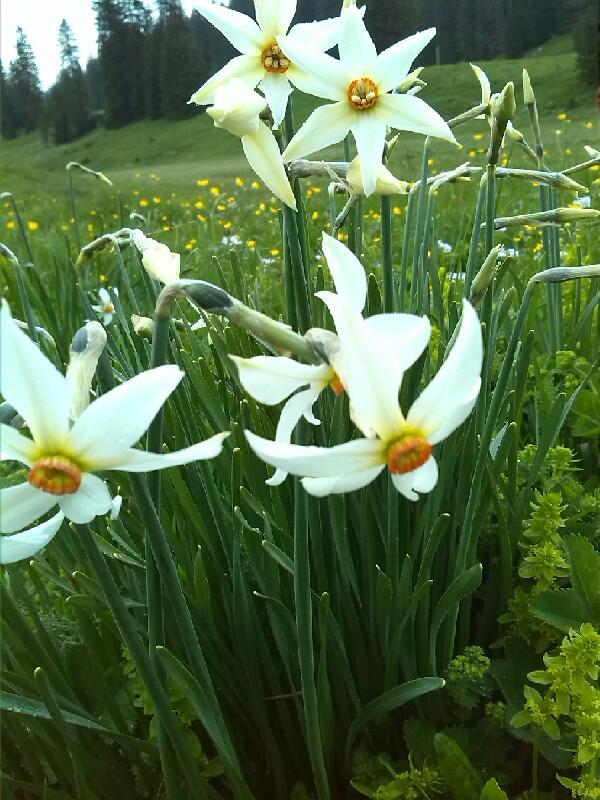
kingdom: Plantae
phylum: Tracheophyta
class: Liliopsida
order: Asparagales
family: Amaryllidaceae
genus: Narcissus
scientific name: Narcissus poeticus
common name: Pheasant's-eye daffodil
